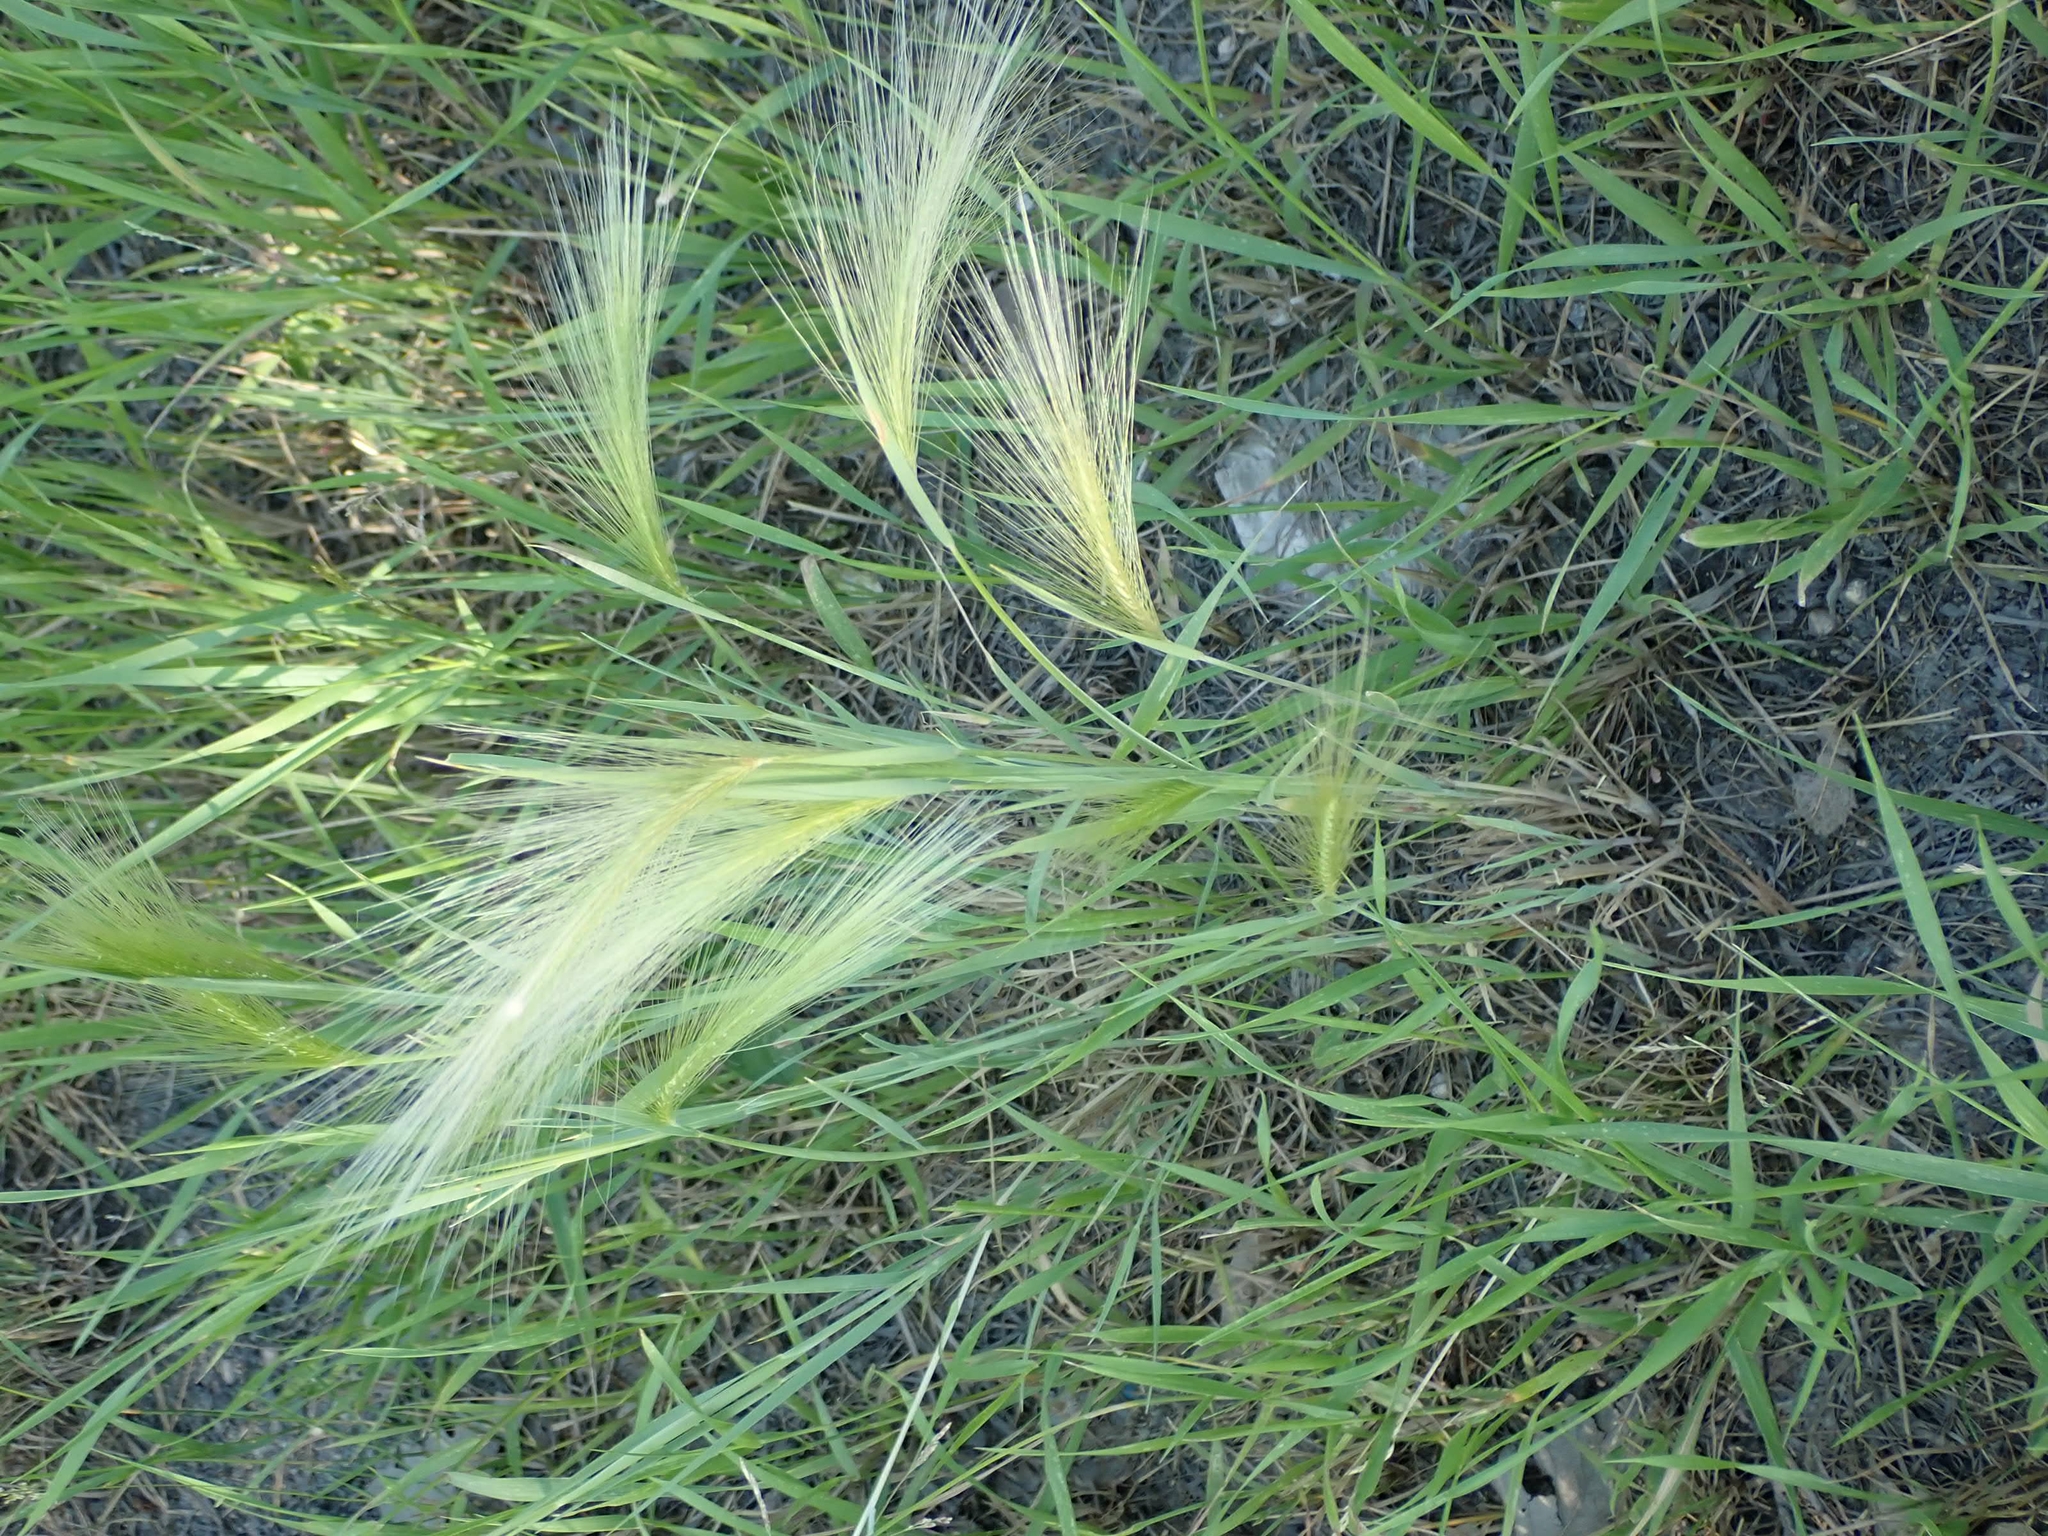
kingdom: Plantae
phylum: Tracheophyta
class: Liliopsida
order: Poales
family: Poaceae
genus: Hordeum
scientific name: Hordeum jubatum
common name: Foxtail barley
